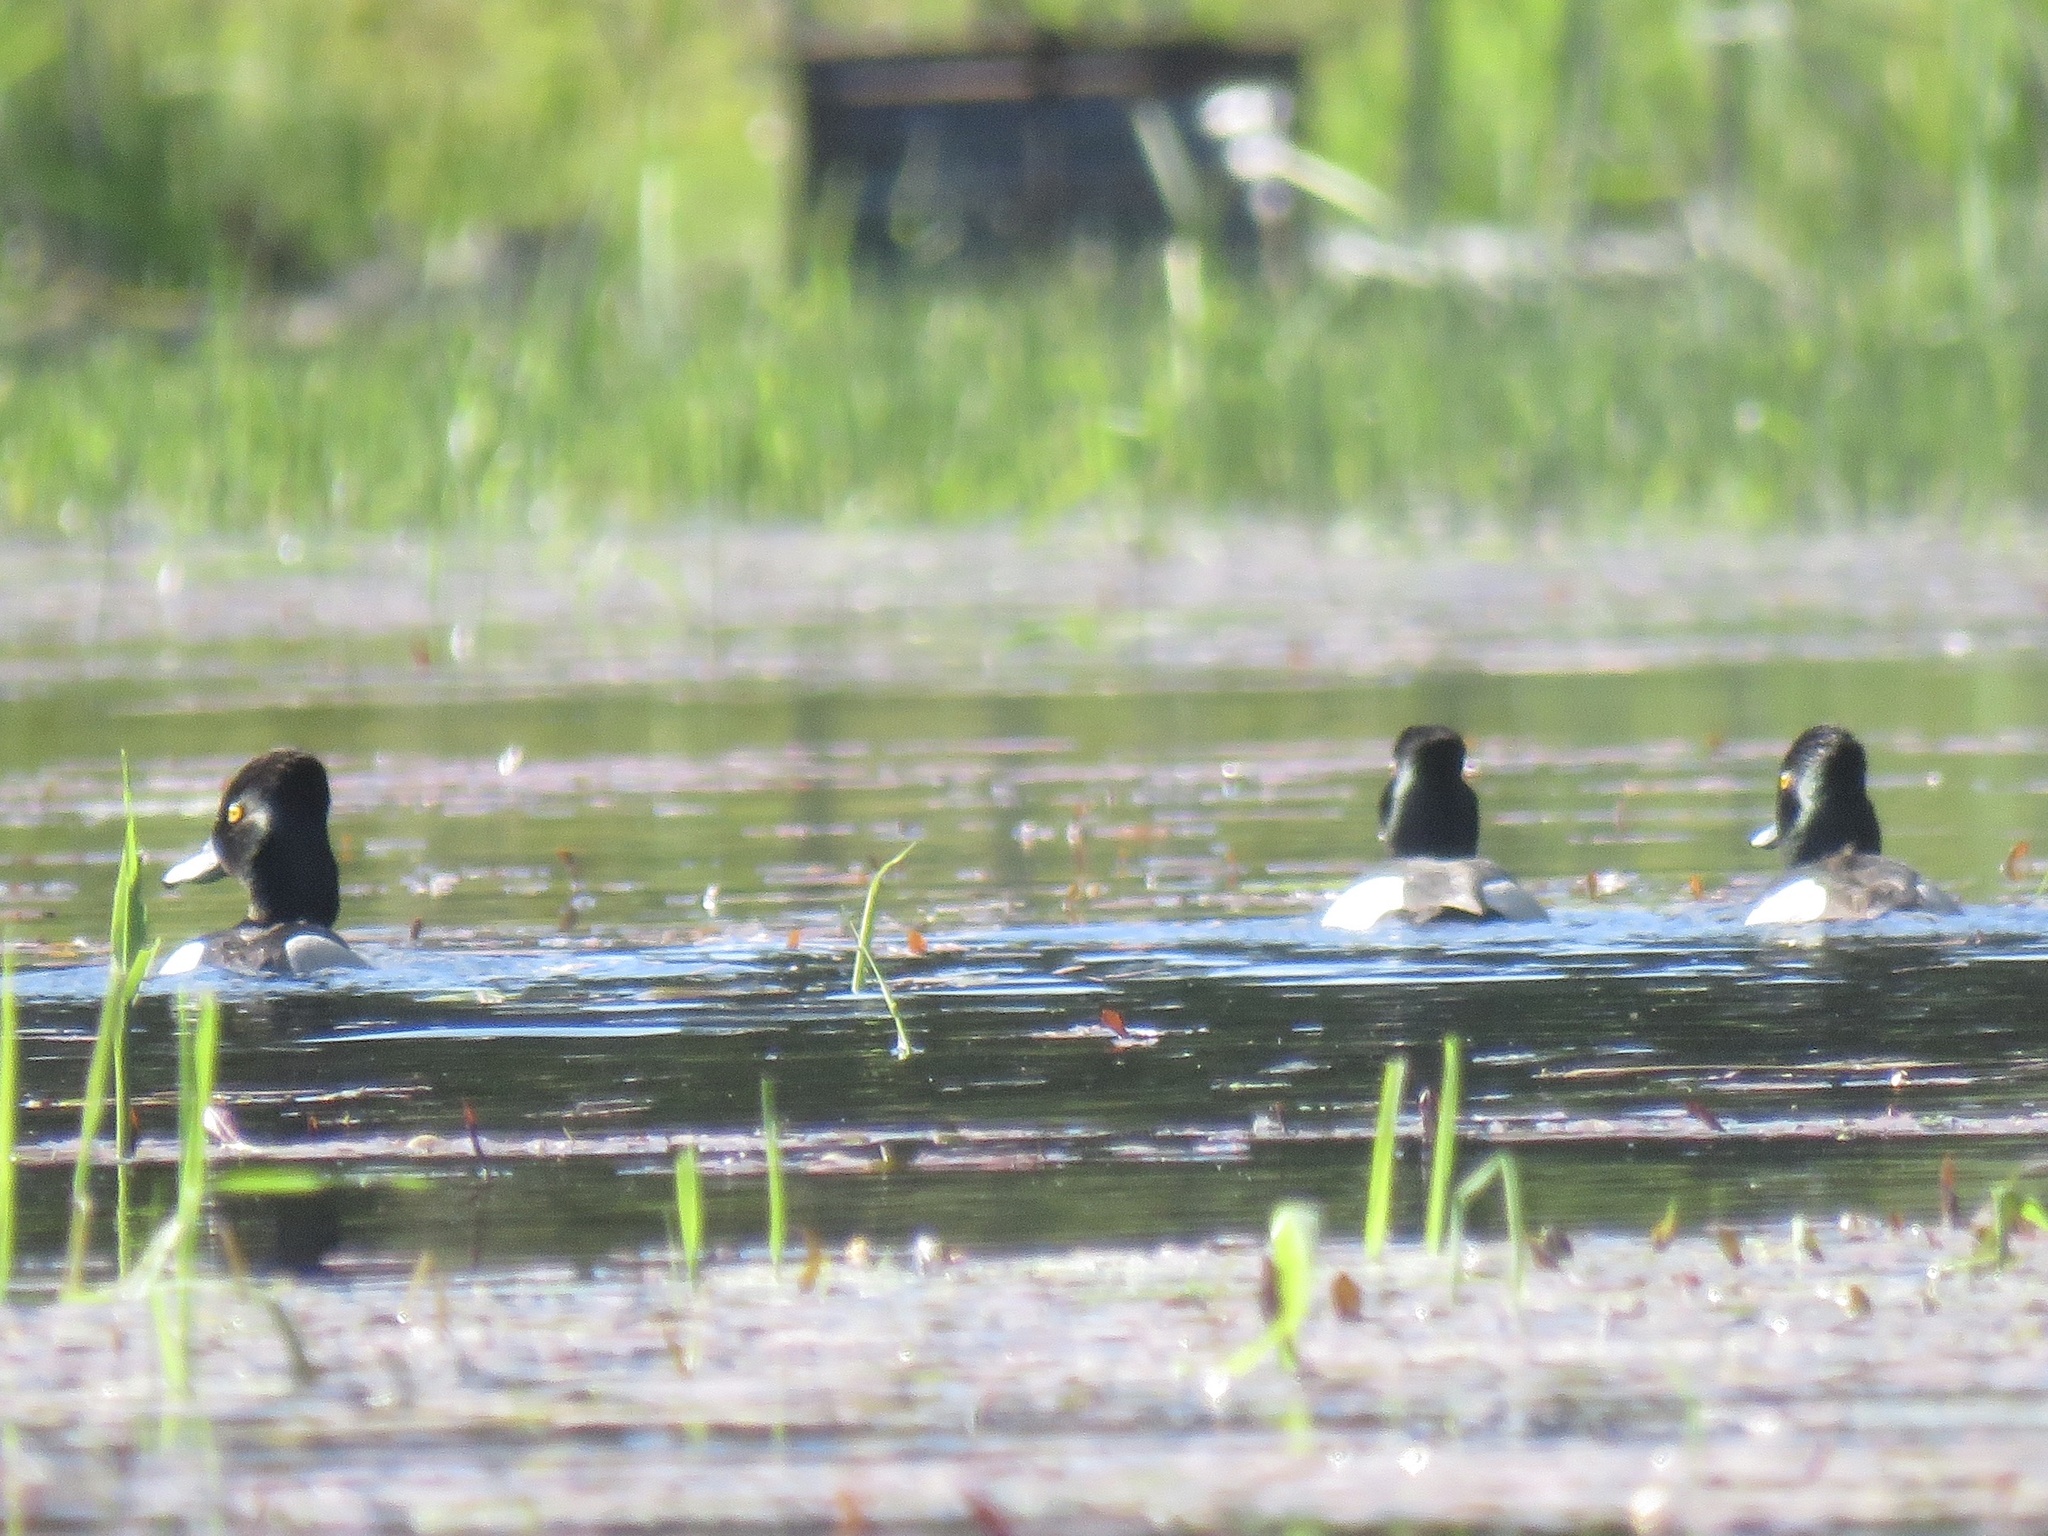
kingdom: Animalia
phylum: Chordata
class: Aves
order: Anseriformes
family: Anatidae
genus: Aythya
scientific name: Aythya collaris
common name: Ring-necked duck
